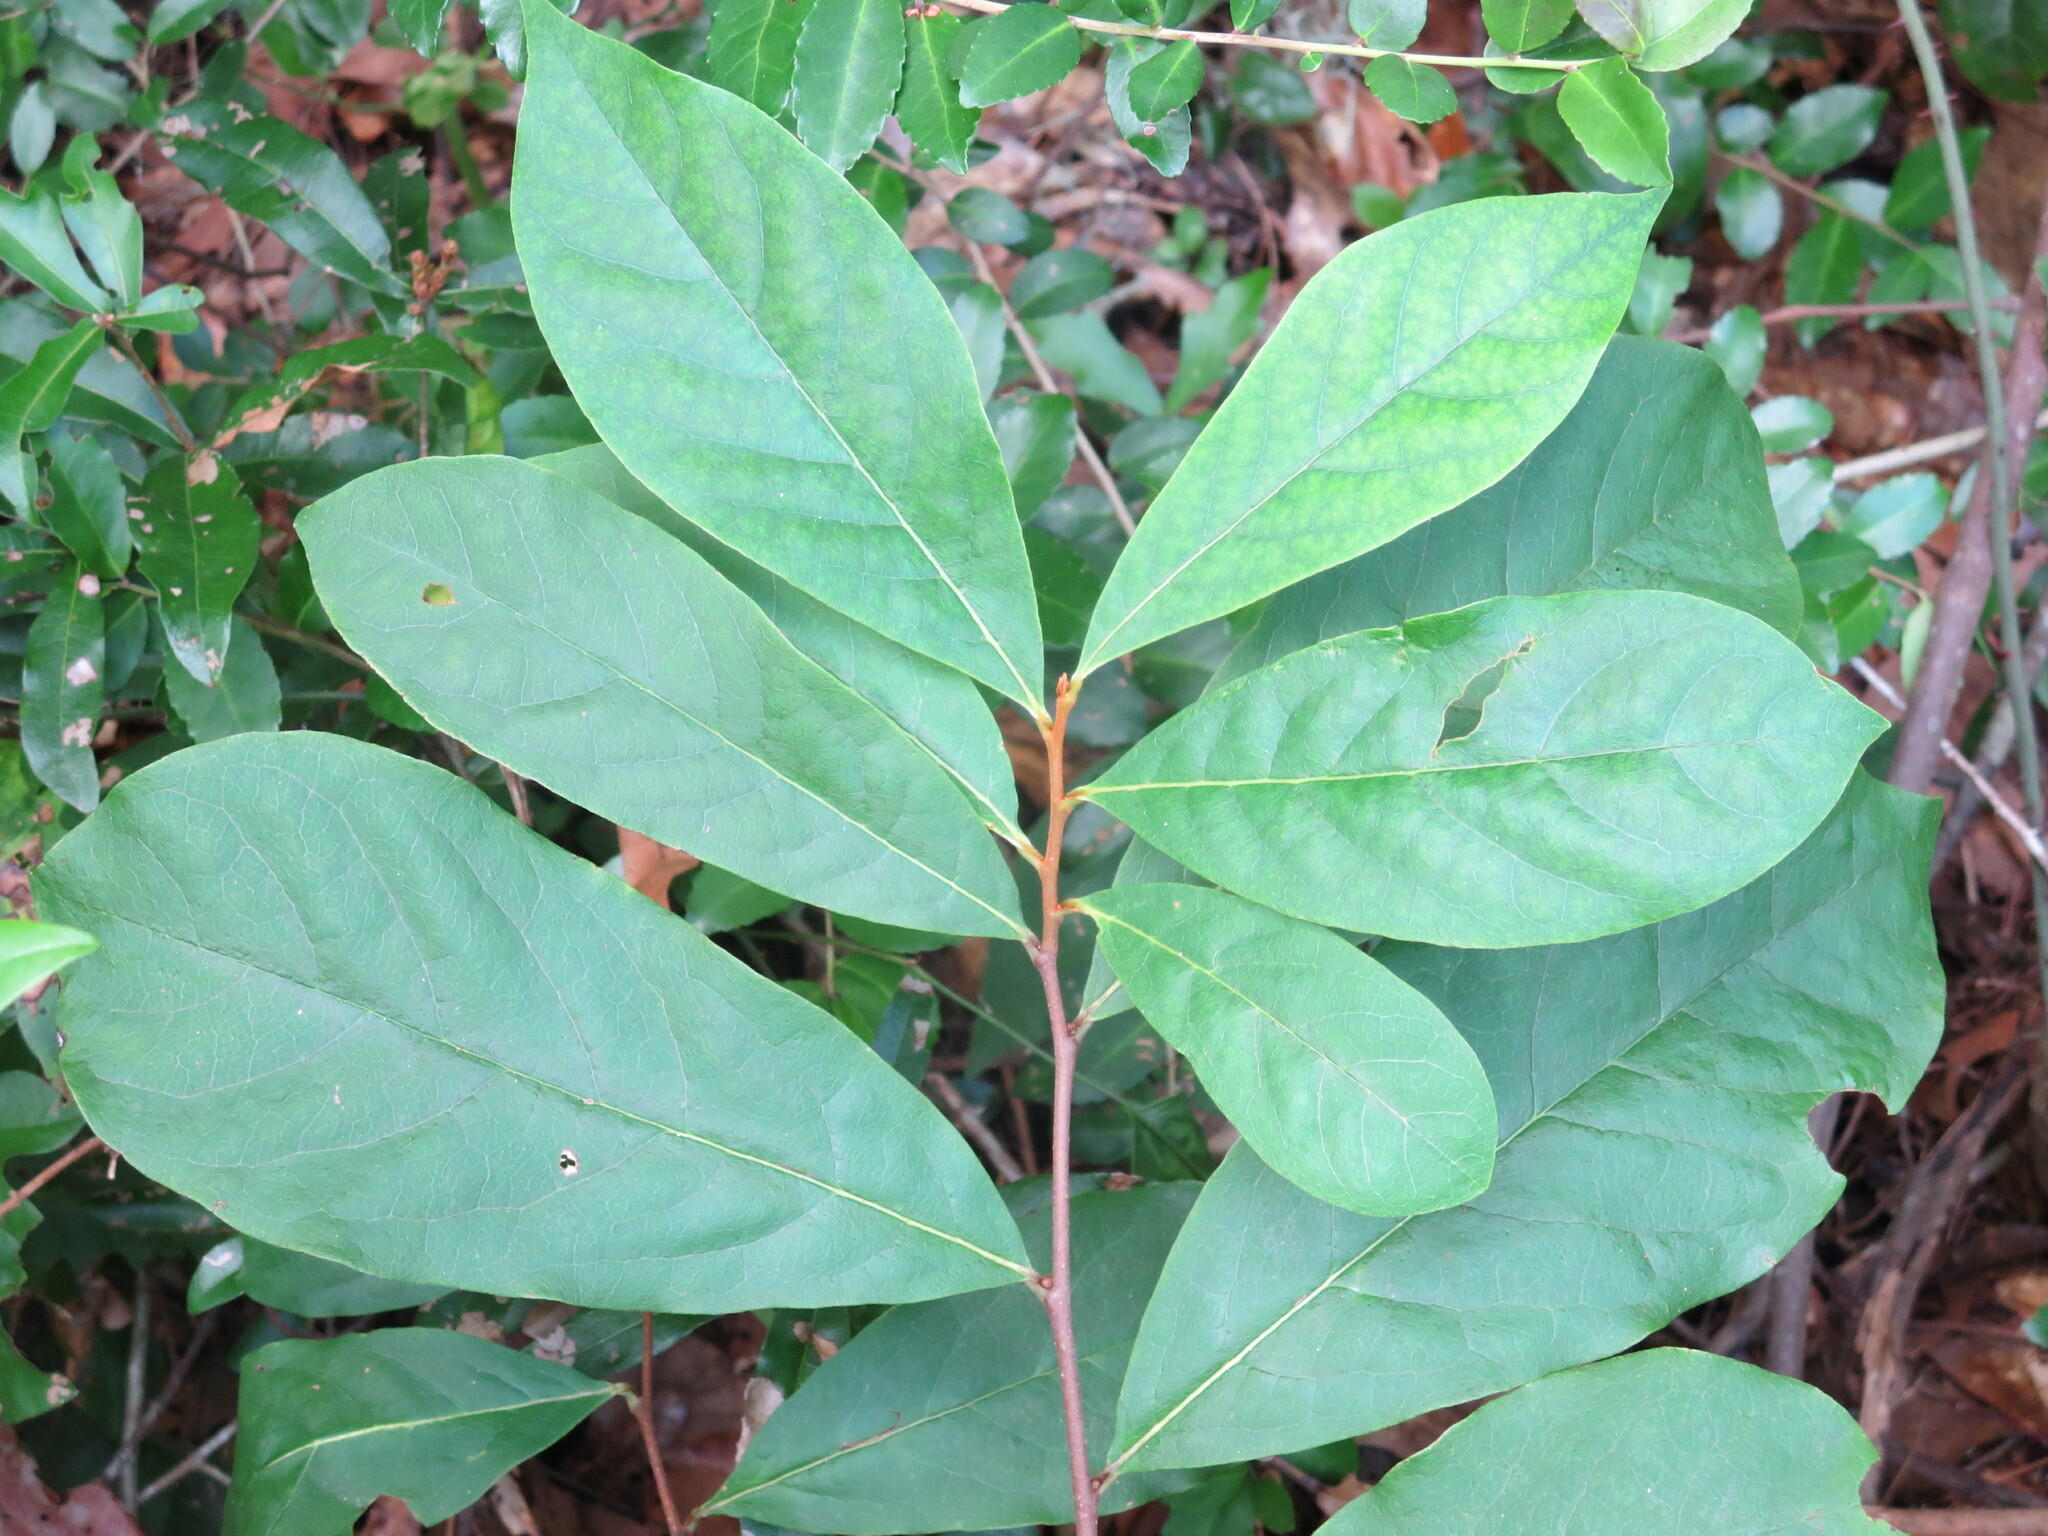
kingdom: Plantae
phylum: Tracheophyta
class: Magnoliopsida
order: Magnoliales
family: Annonaceae
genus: Asimina
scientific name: Asimina parviflora
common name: Dwarf pawpaw
